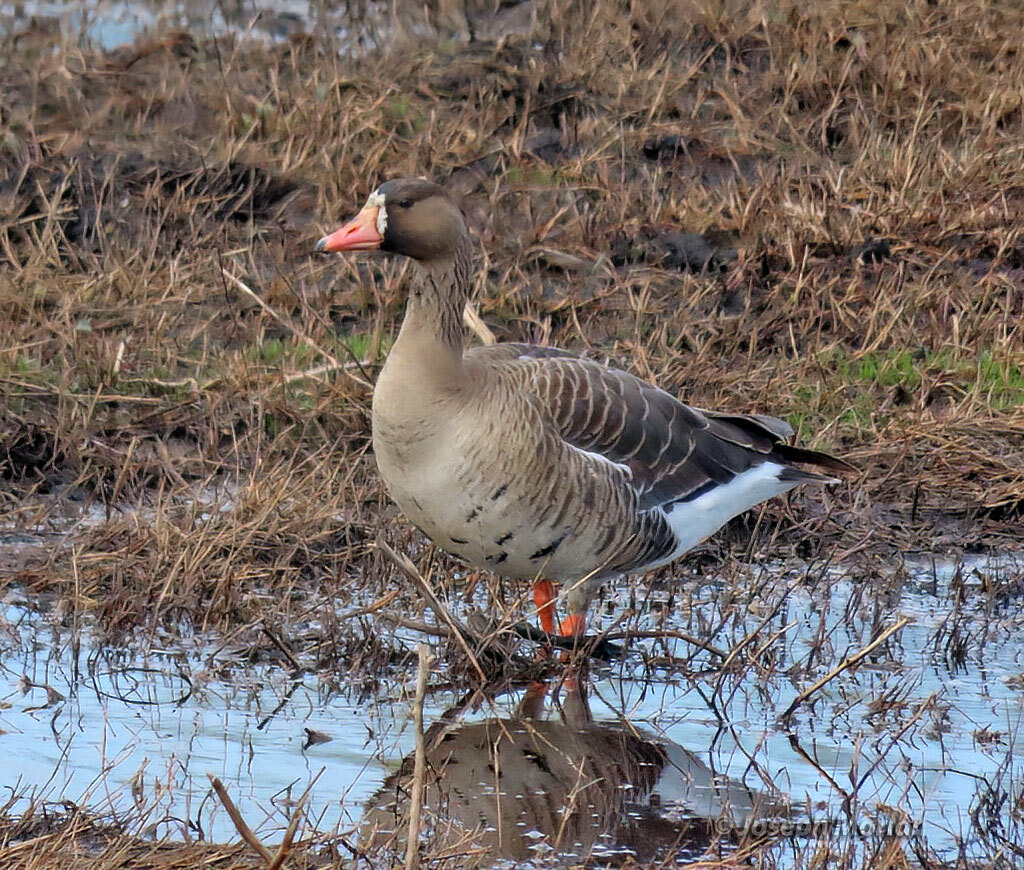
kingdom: Animalia
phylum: Chordata
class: Aves
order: Anseriformes
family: Anatidae
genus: Anser
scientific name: Anser albifrons
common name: Greater white-fronted goose
